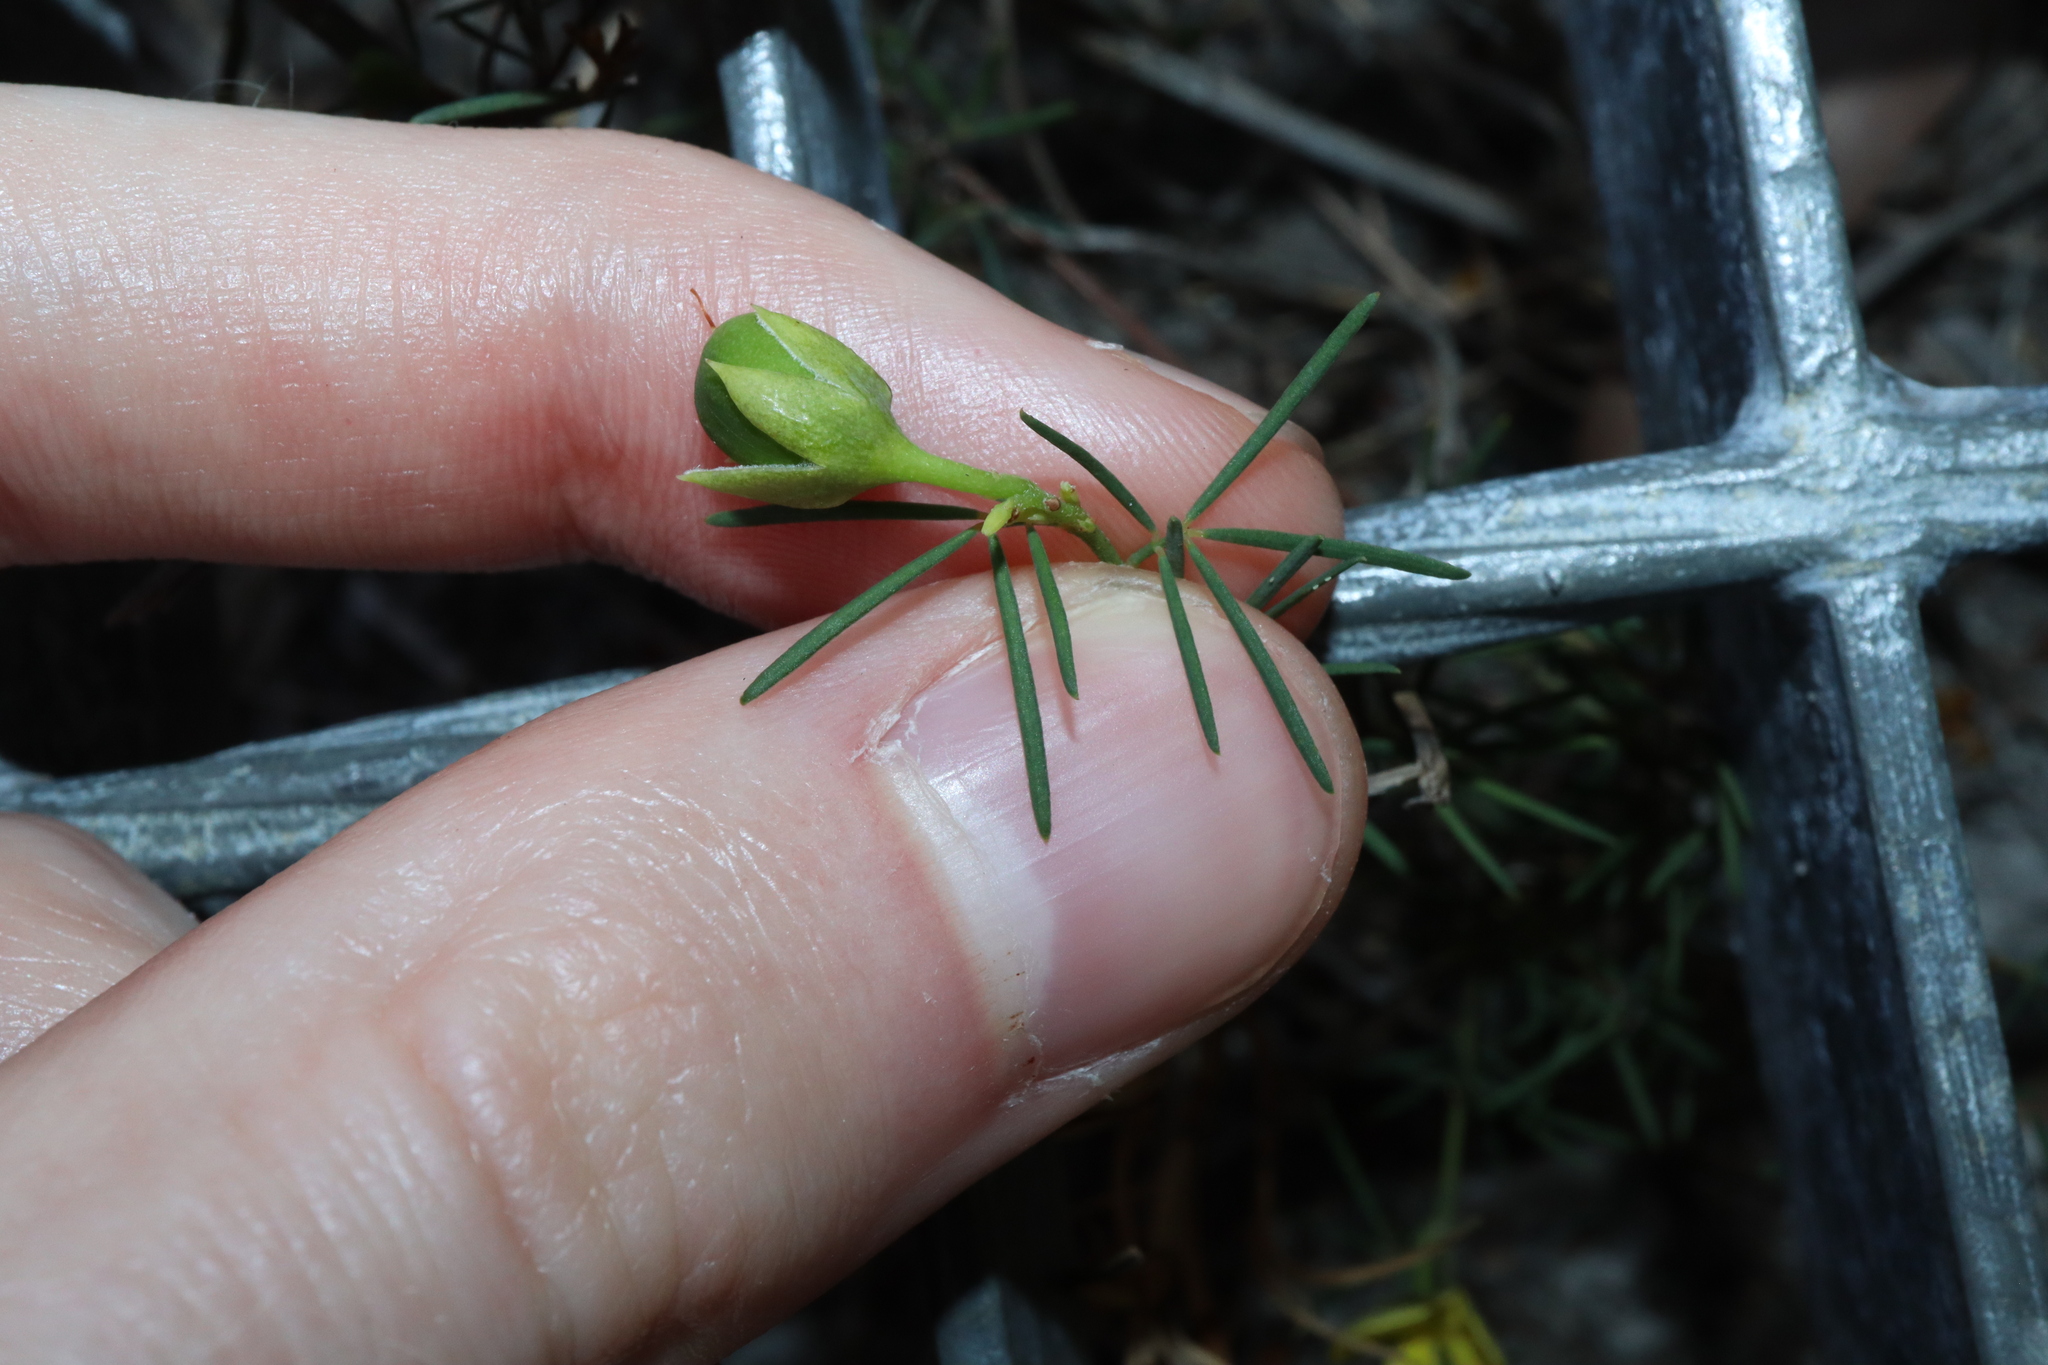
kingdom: Plantae
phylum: Tracheophyta
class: Magnoliopsida
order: Fabales
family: Fabaceae
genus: Gompholobium
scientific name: Gompholobium glabratum
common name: Dainty wedge pea
